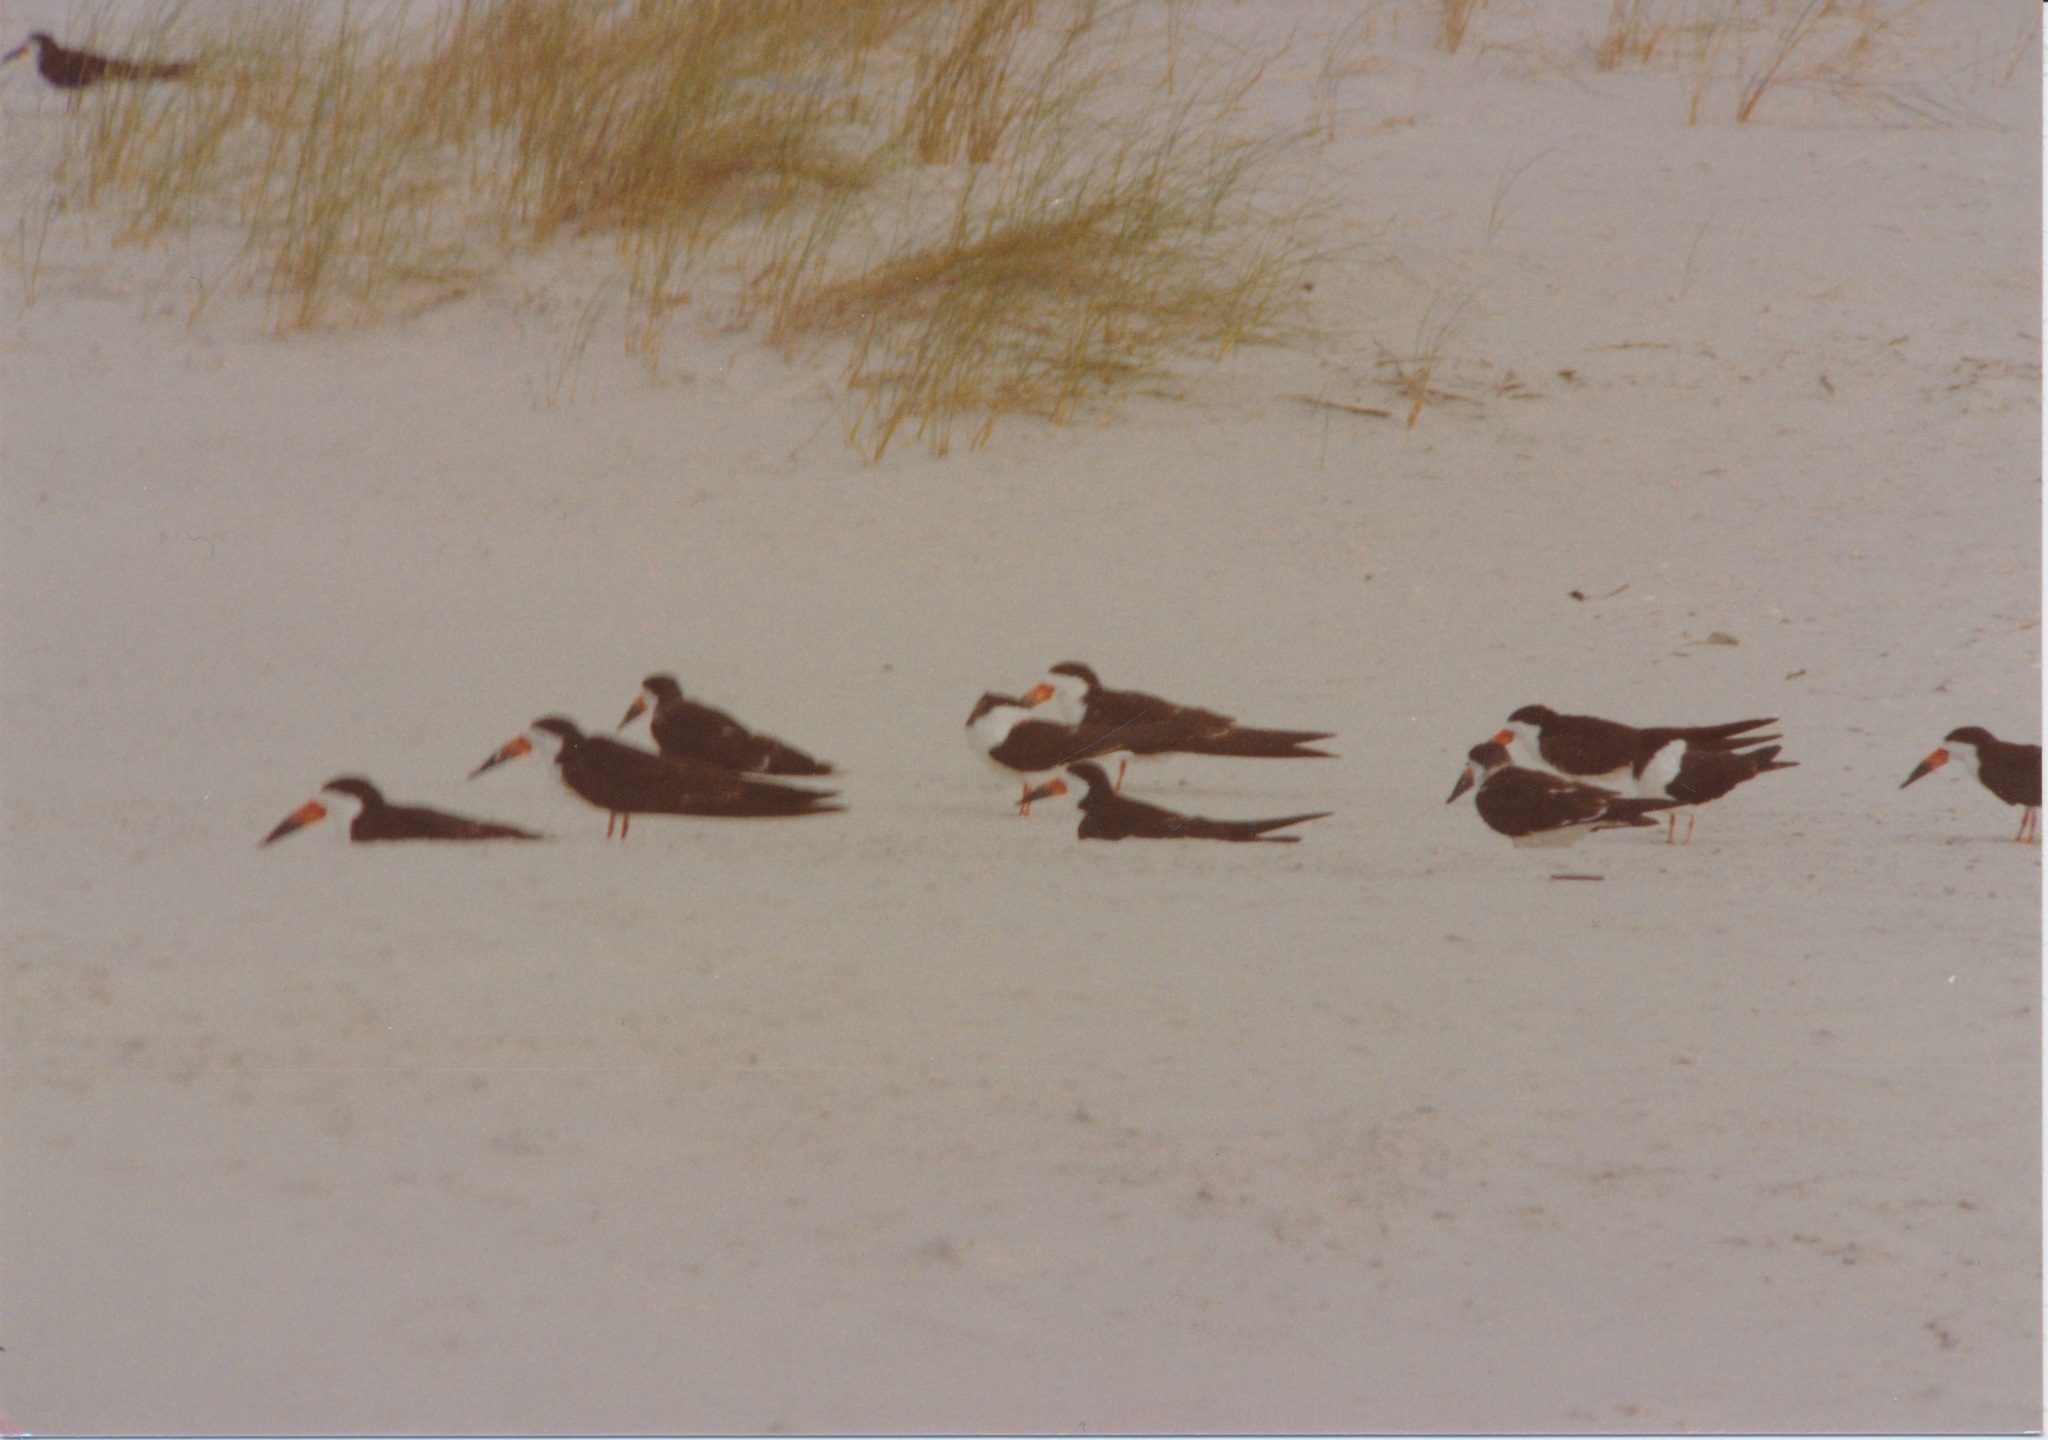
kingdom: Animalia
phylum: Chordata
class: Aves
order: Charadriiformes
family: Laridae
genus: Rynchops
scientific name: Rynchops niger
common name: Black skimmer
